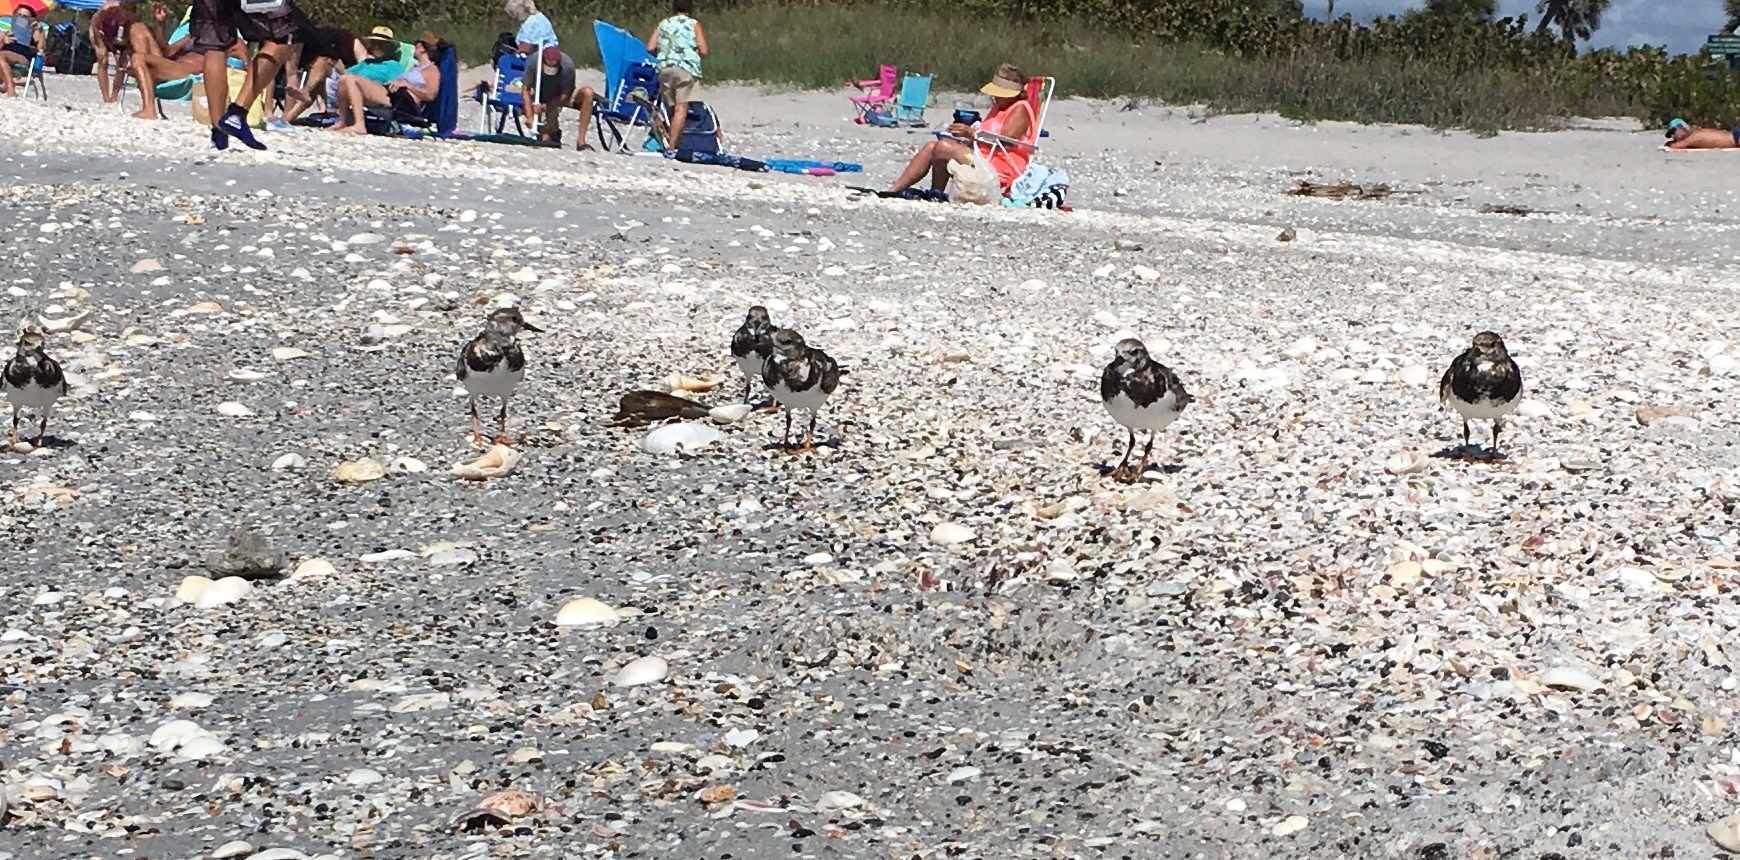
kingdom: Animalia
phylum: Chordata
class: Aves
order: Charadriiformes
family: Scolopacidae
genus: Arenaria
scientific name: Arenaria interpres
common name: Ruddy turnstone
